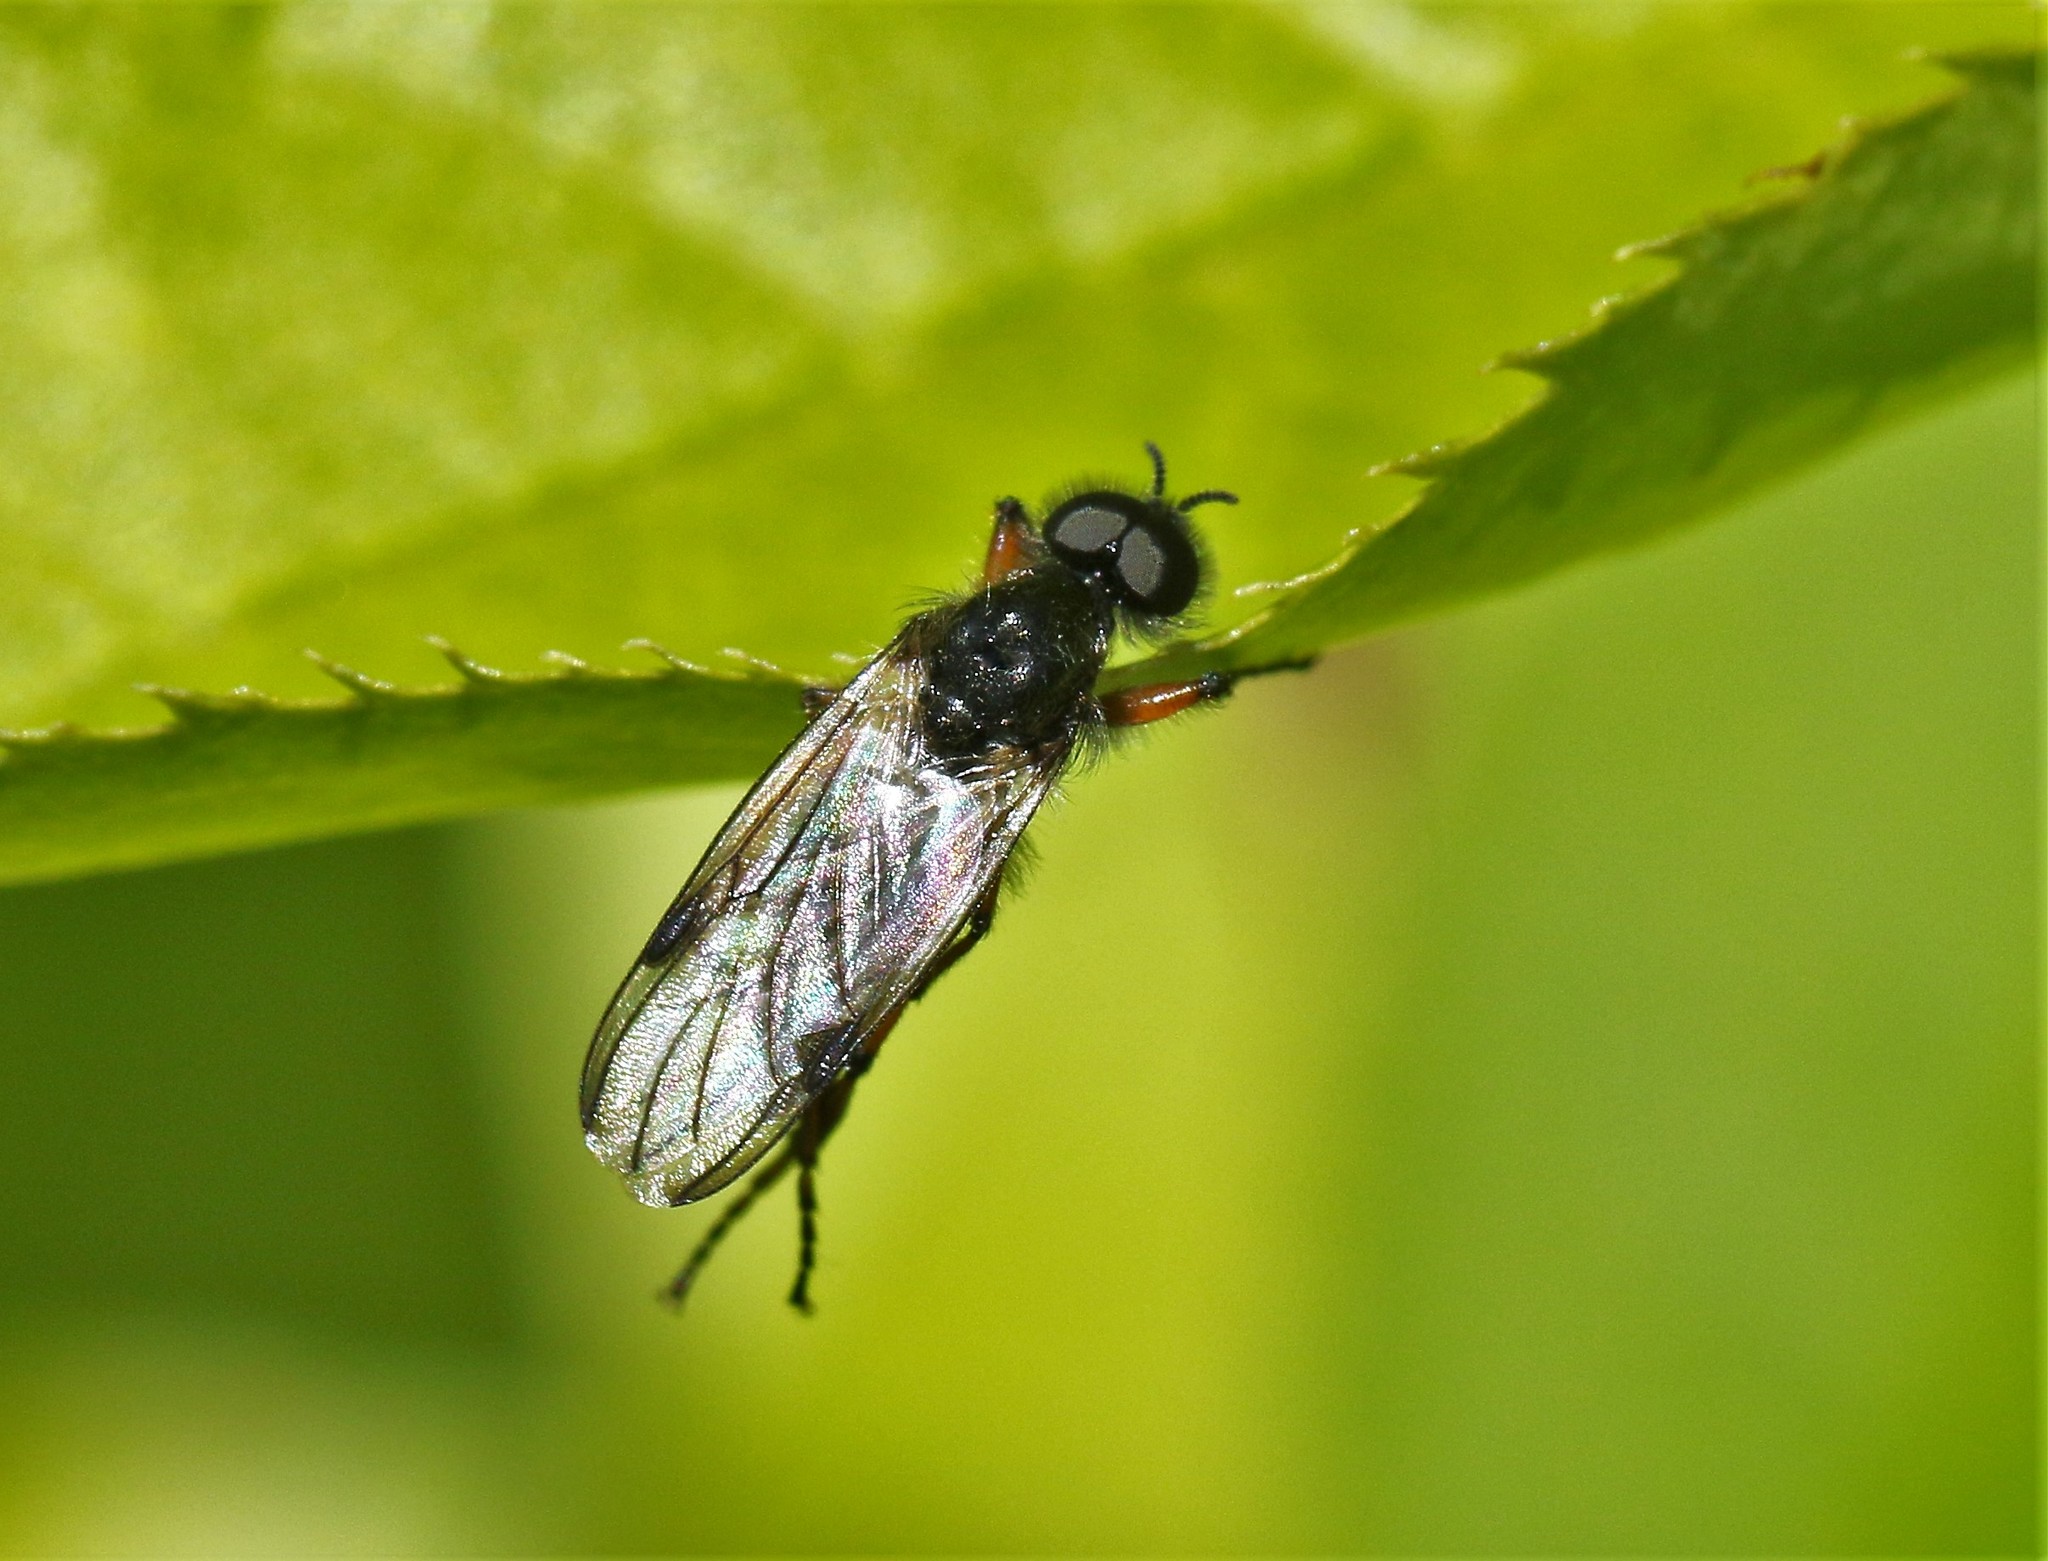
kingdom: Animalia
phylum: Arthropoda
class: Insecta
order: Diptera
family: Bibionidae
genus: Bibio
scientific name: Bibio xanthopus
